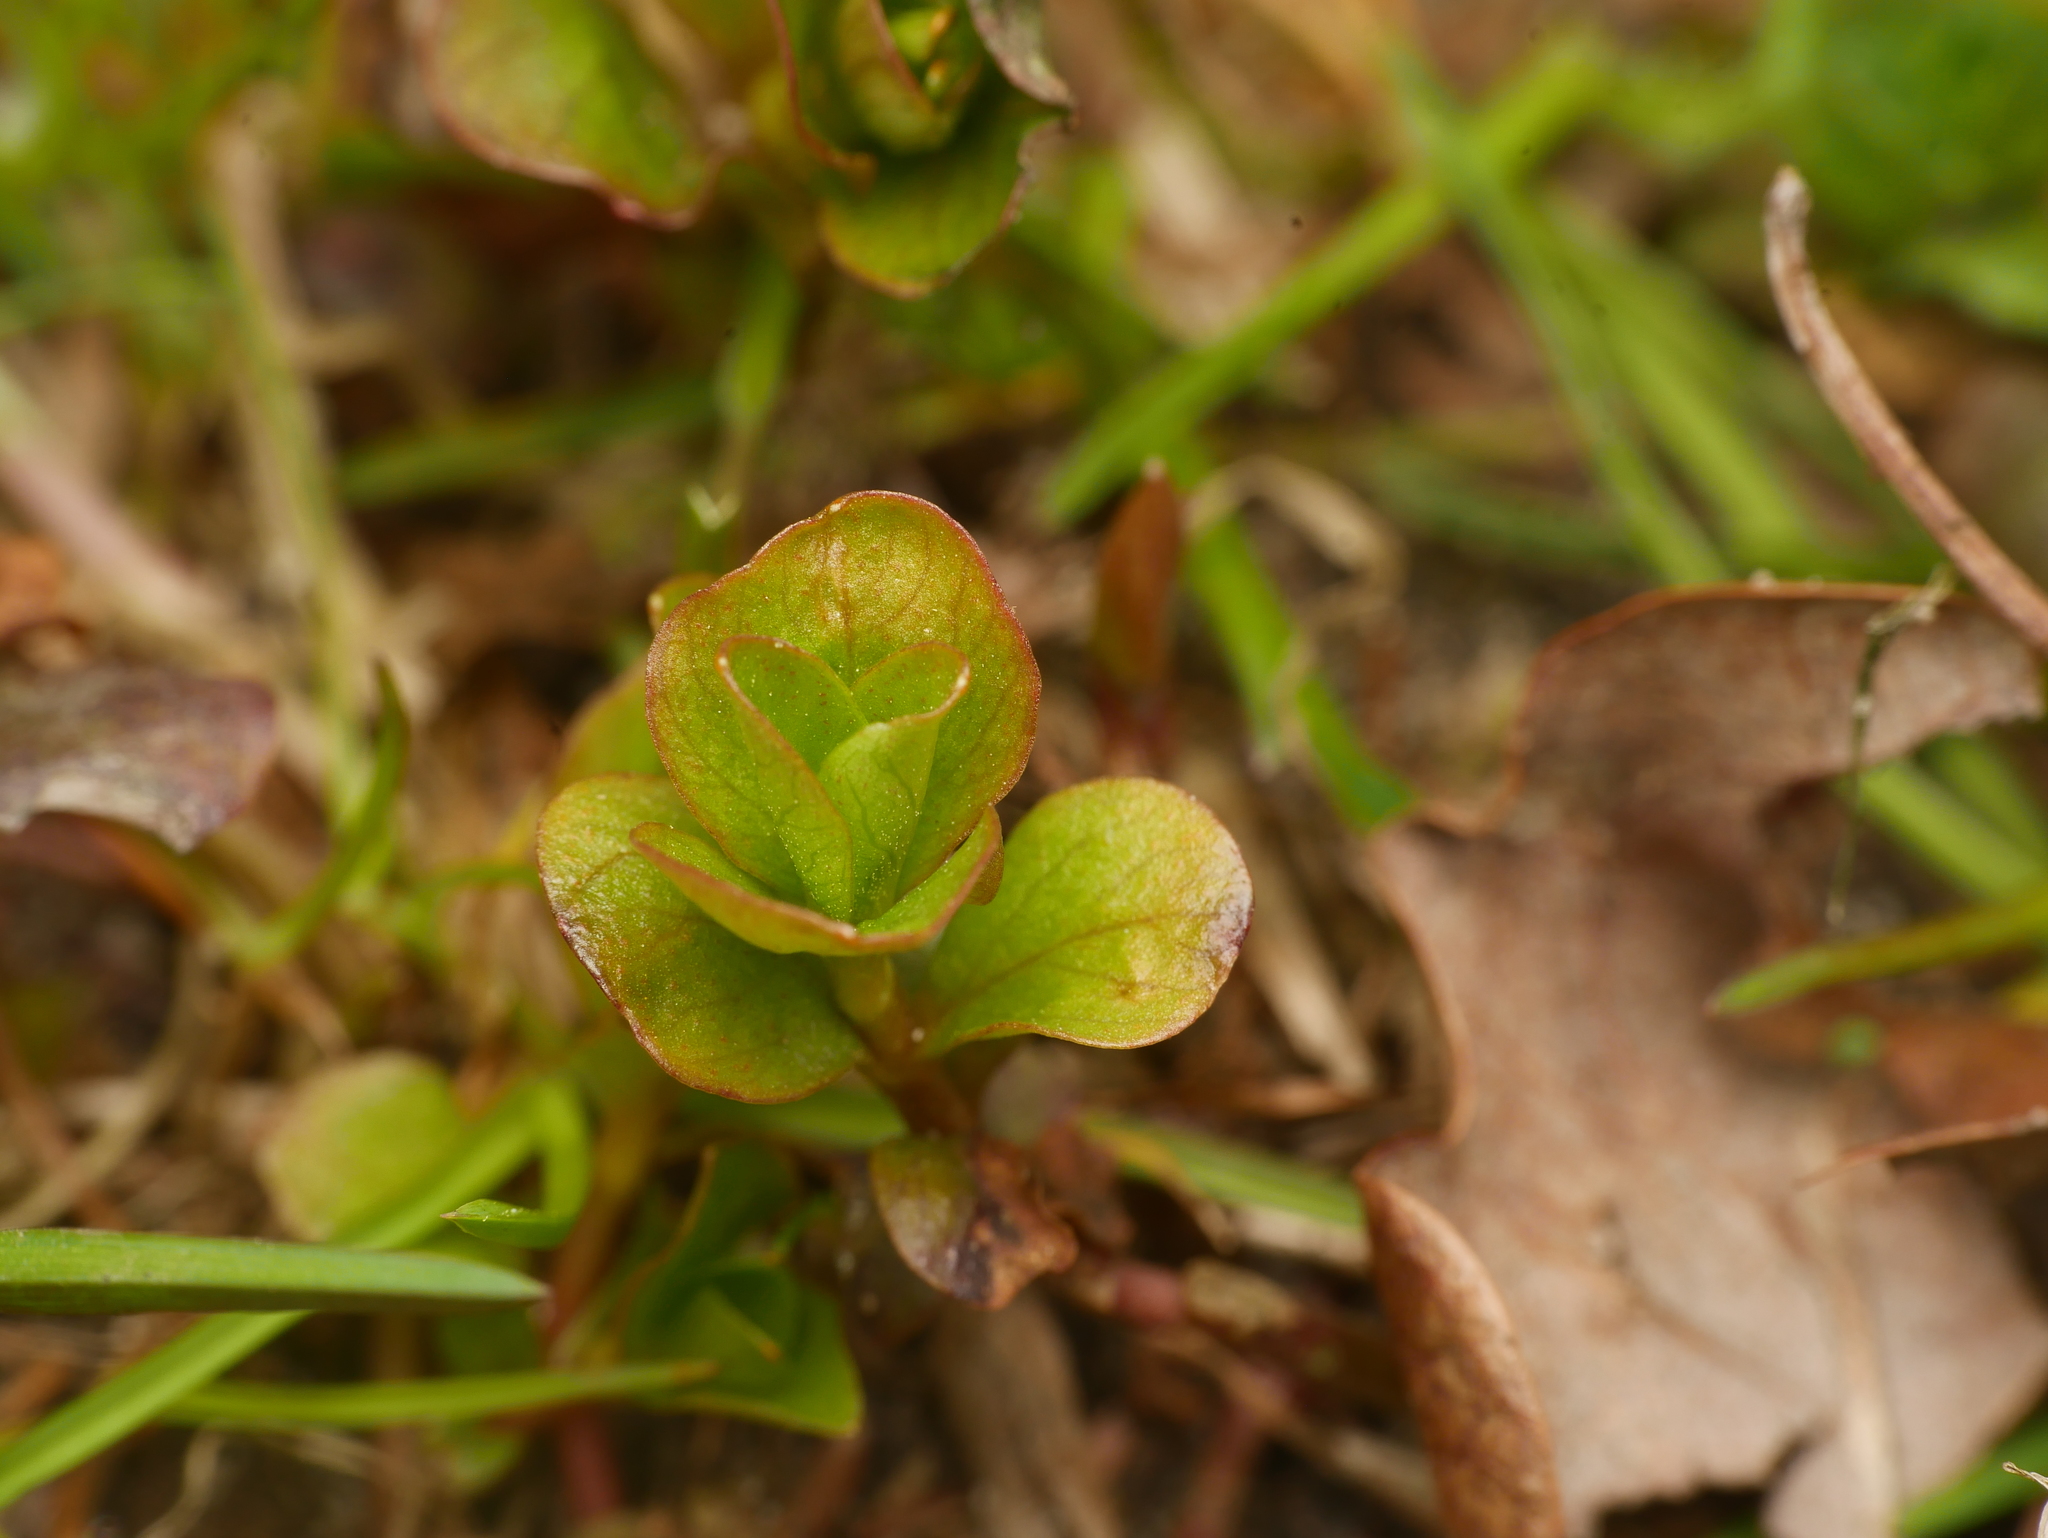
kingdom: Plantae
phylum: Tracheophyta
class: Magnoliopsida
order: Ericales
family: Primulaceae
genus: Lysimachia
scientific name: Lysimachia nummularia
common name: Moneywort
